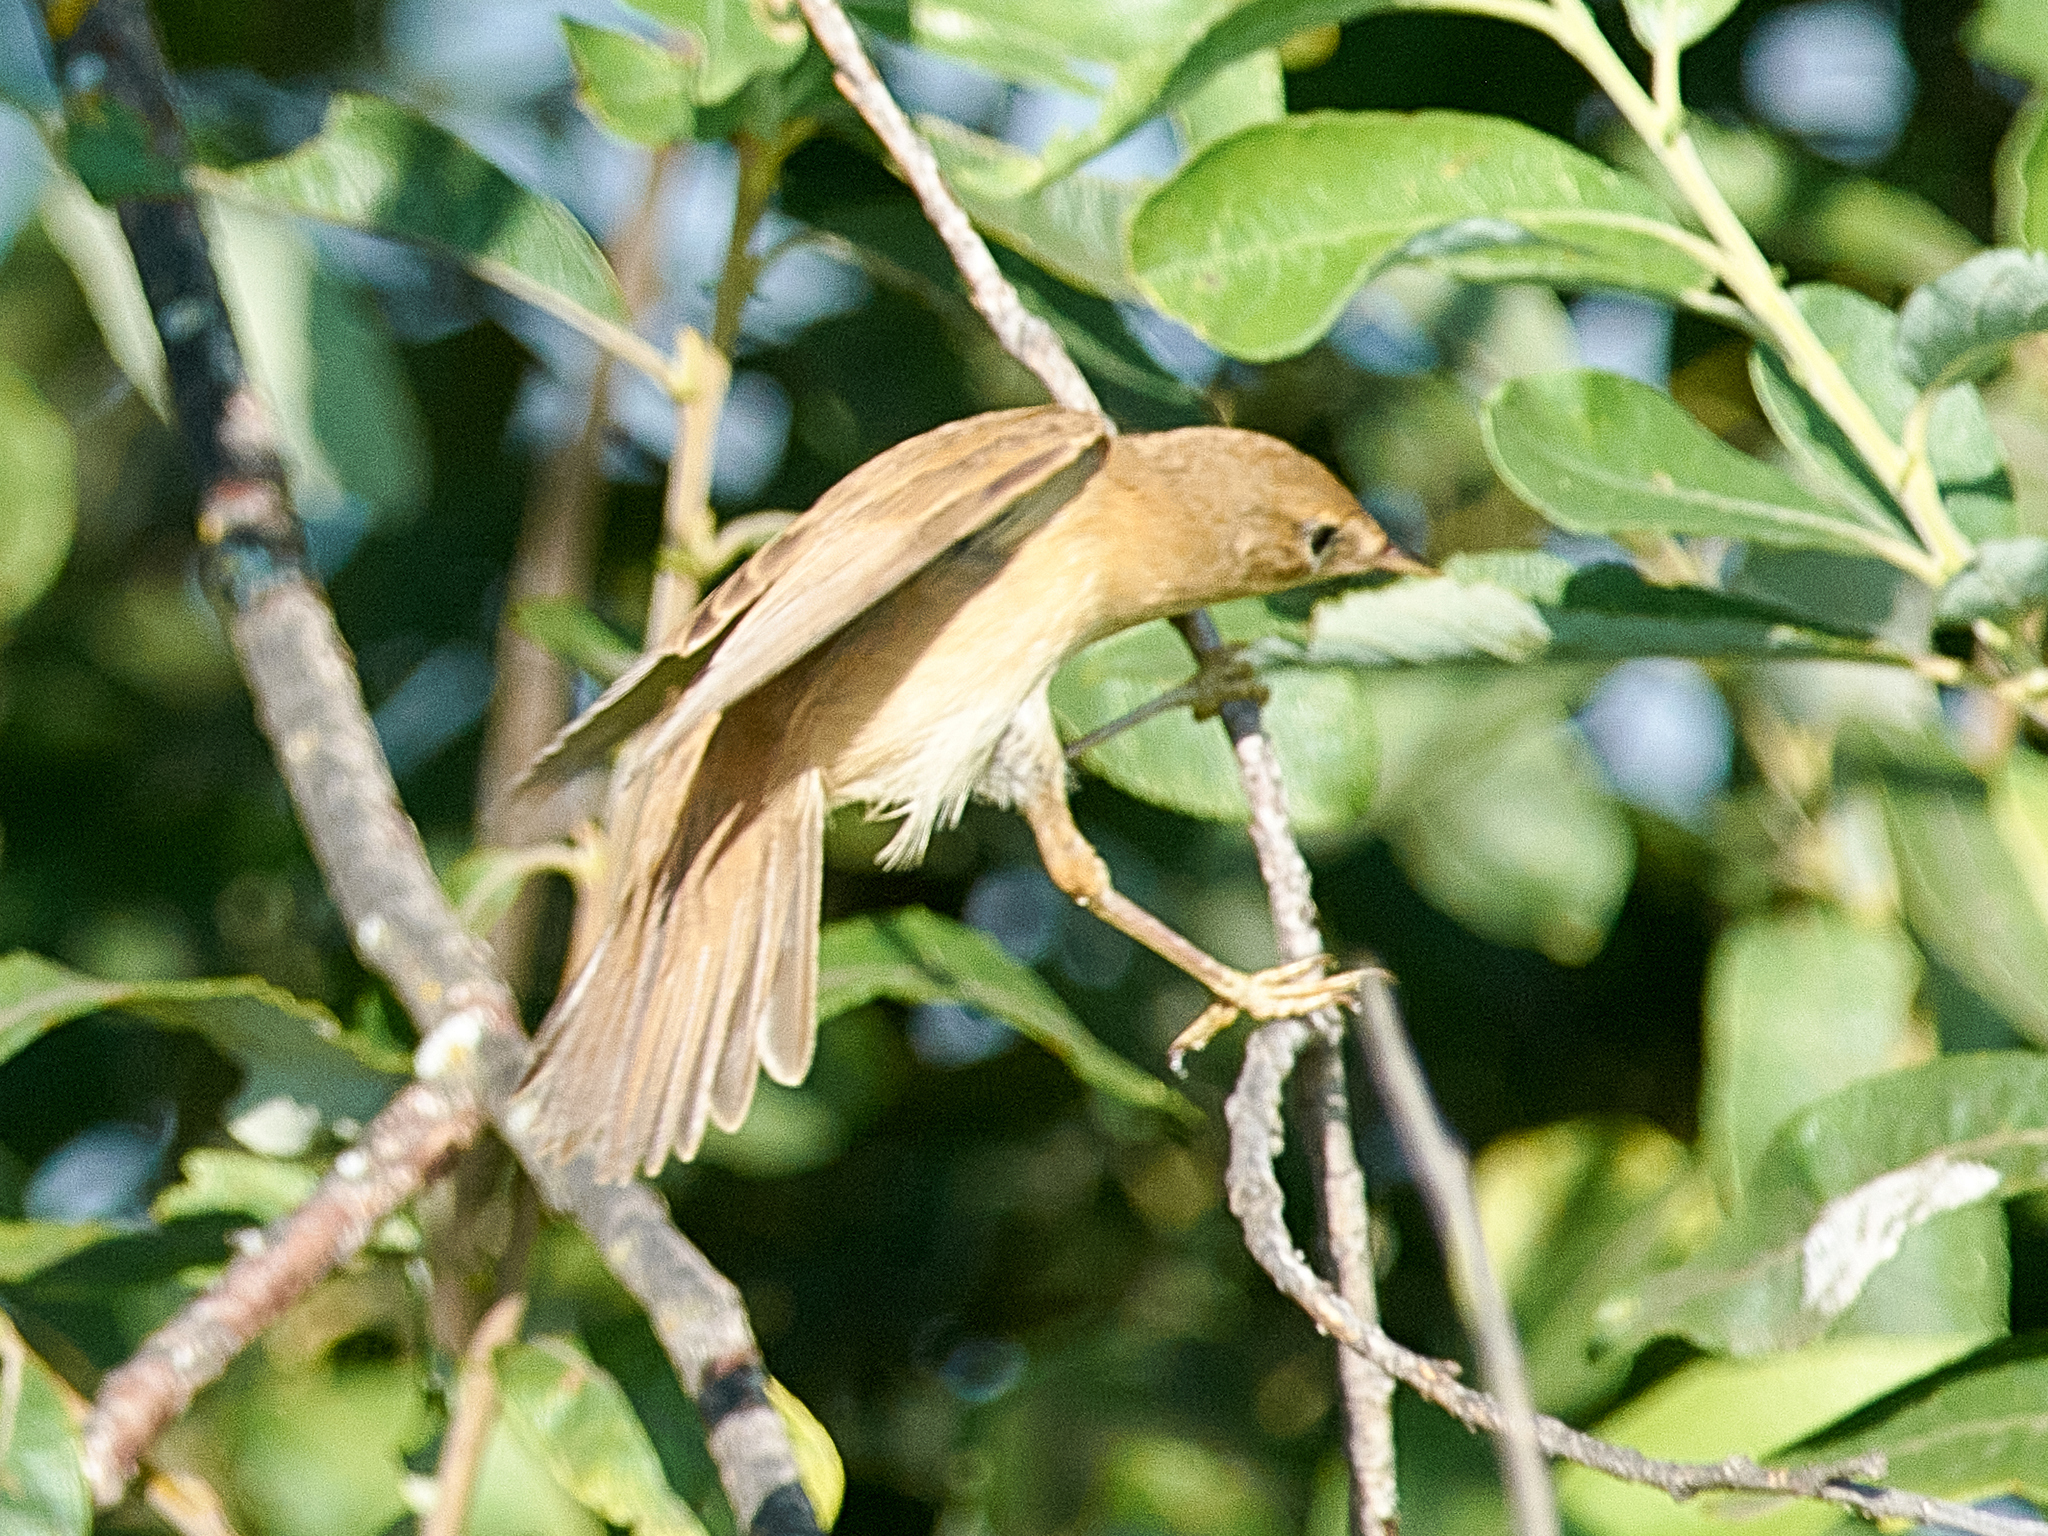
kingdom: Animalia
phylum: Chordata
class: Aves
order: Passeriformes
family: Acrocephalidae
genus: Acrocephalus
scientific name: Acrocephalus palustris
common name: Marsh warbler
